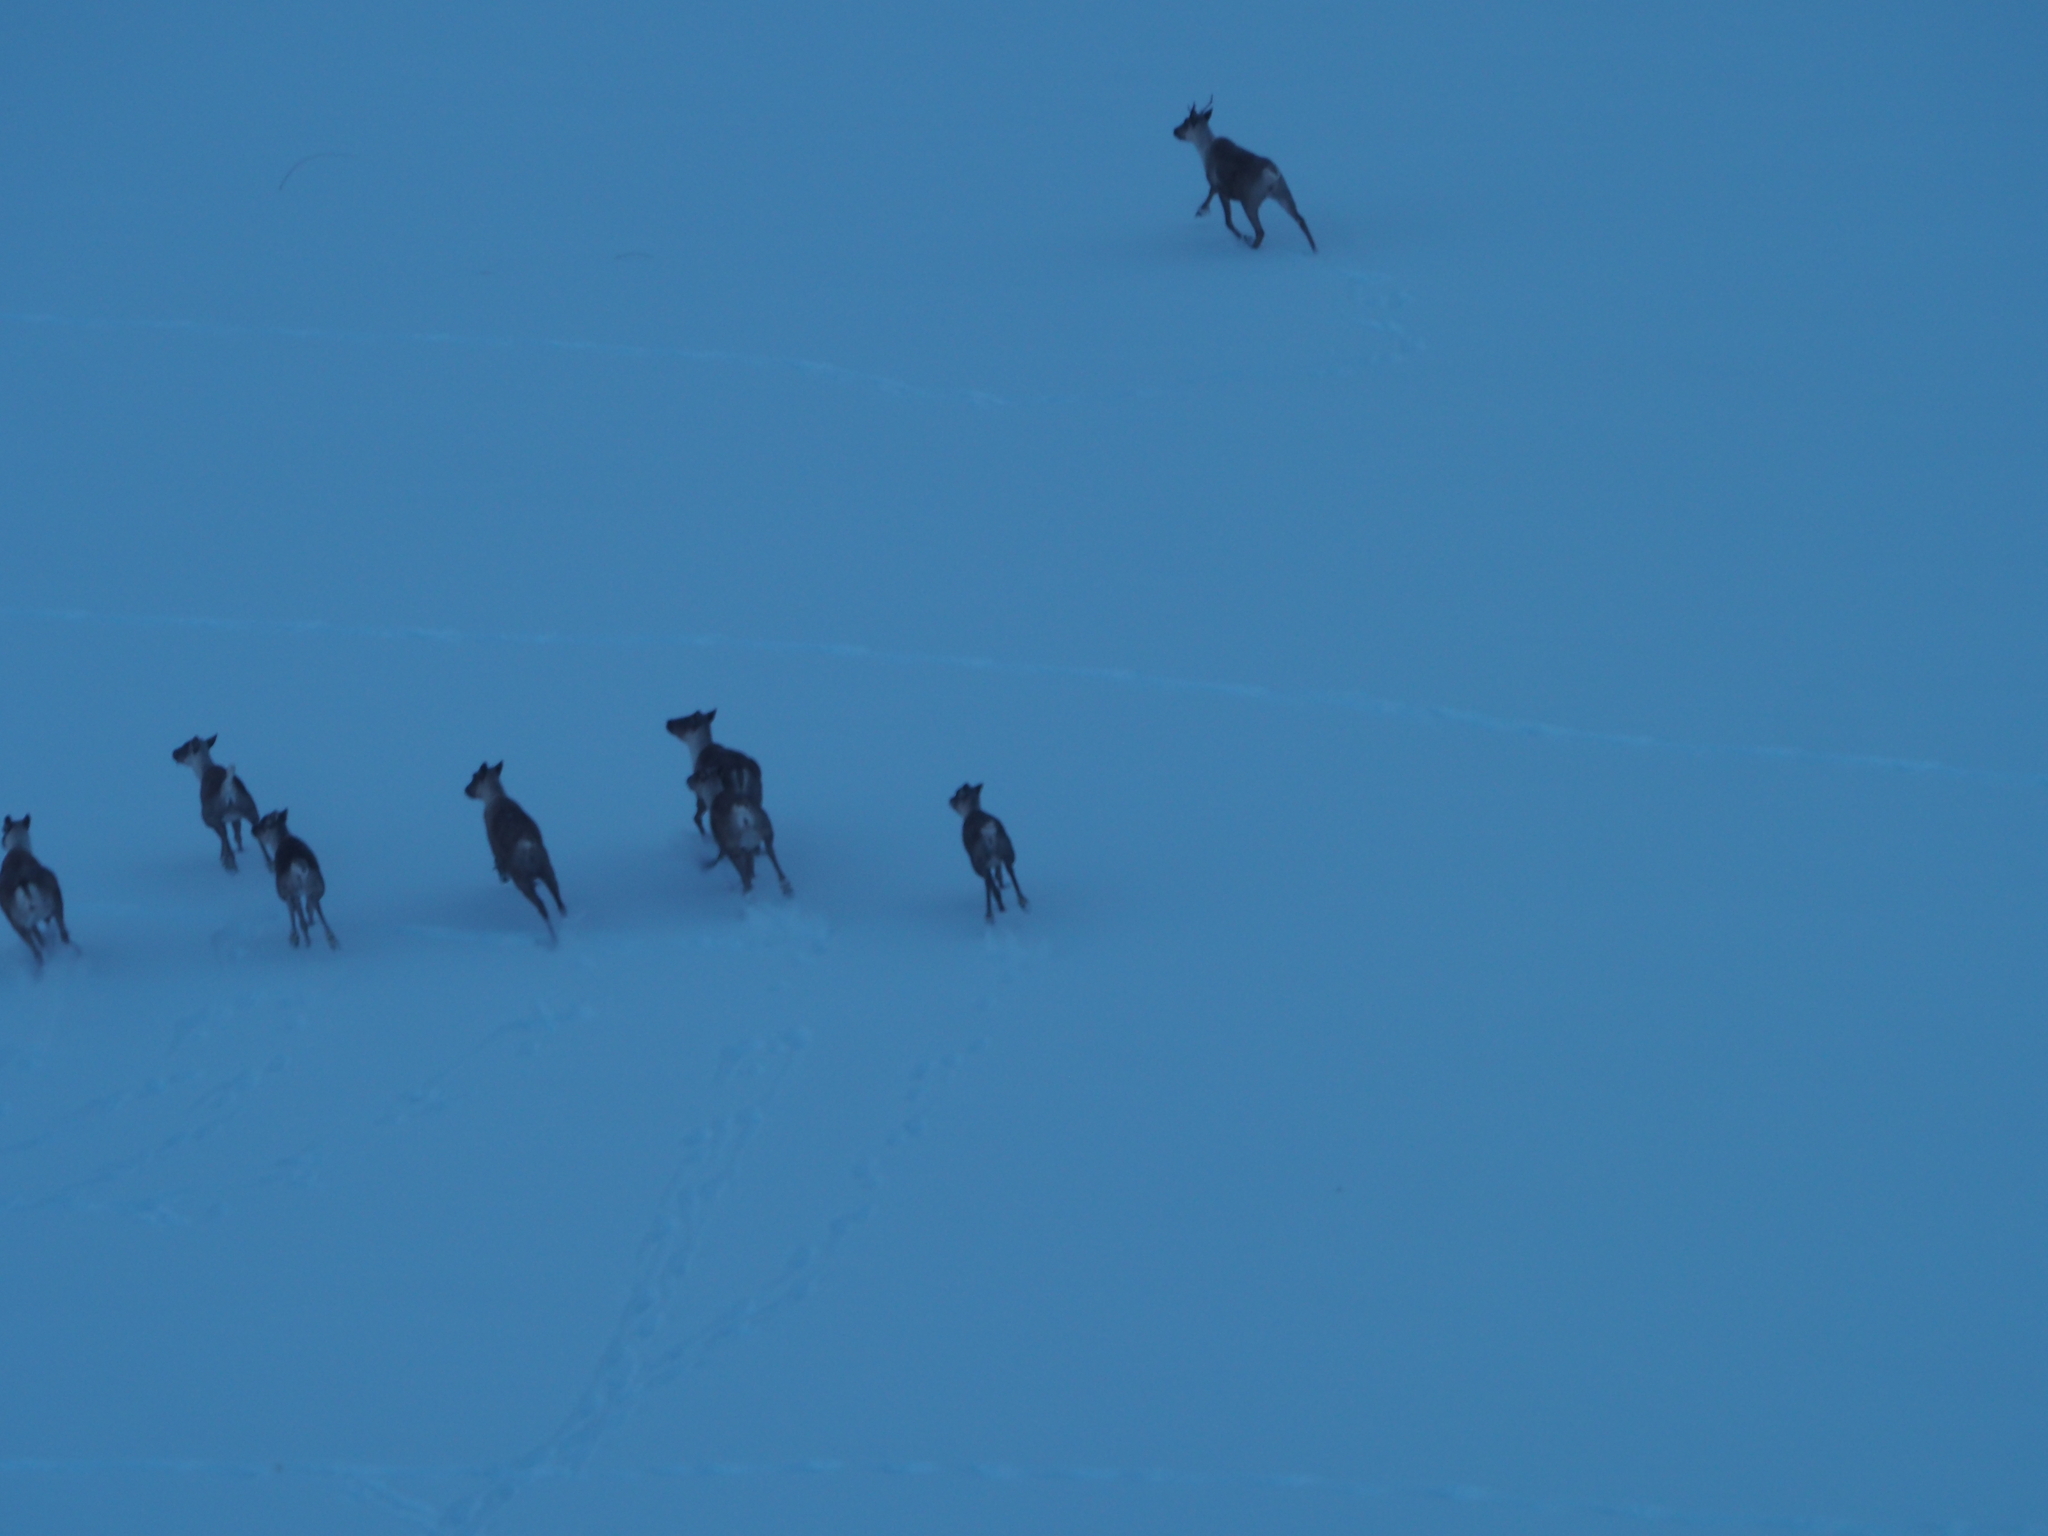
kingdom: Animalia
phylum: Chordata
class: Mammalia
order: Artiodactyla
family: Cervidae
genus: Rangifer
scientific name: Rangifer tarandus
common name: Reindeer
